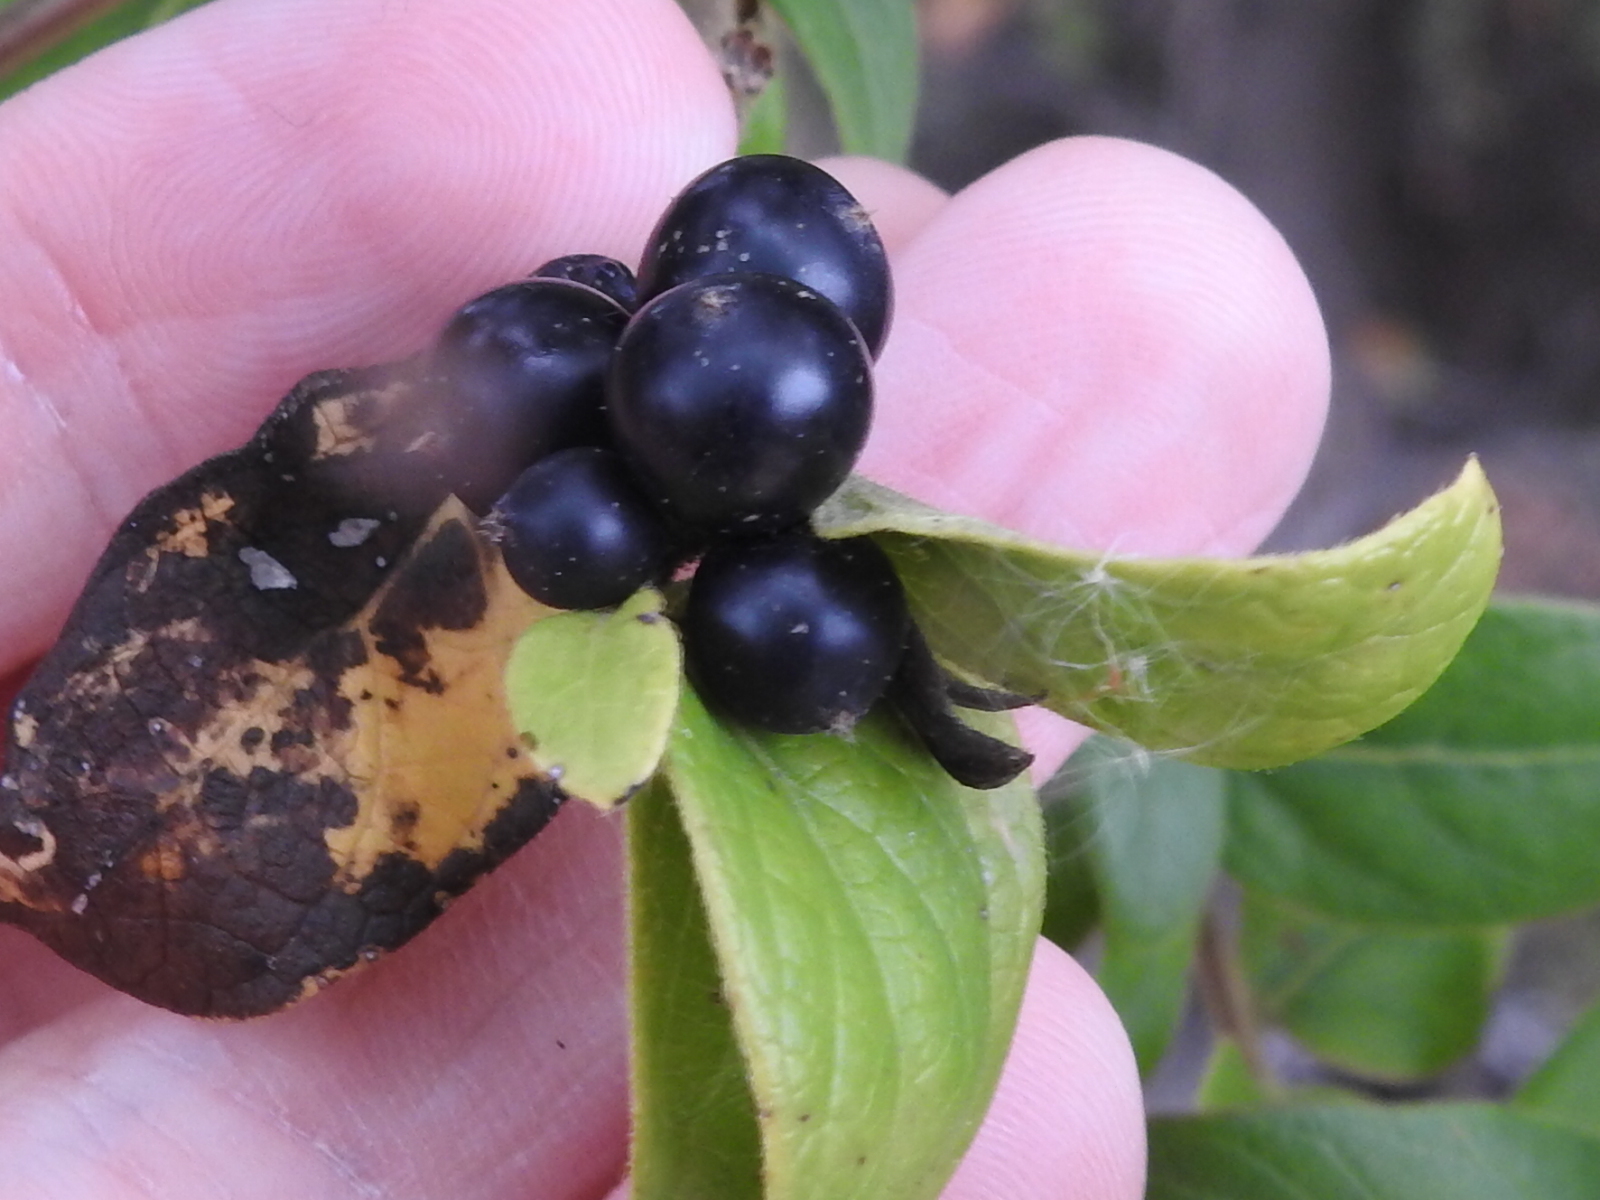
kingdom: Plantae
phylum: Tracheophyta
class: Magnoliopsida
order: Dipsacales
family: Caprifoliaceae
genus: Lonicera
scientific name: Lonicera japonica
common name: Japanese honeysuckle
